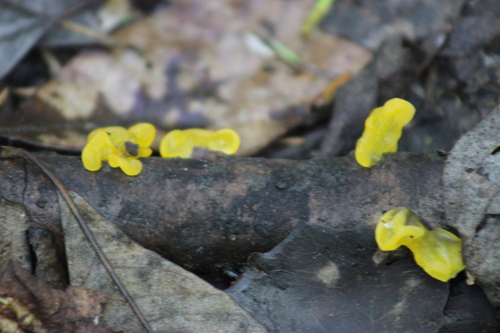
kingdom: Fungi
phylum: Basidiomycota
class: Tremellomycetes
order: Tremellales
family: Tremellaceae
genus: Tremella
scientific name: Tremella mesenterica
